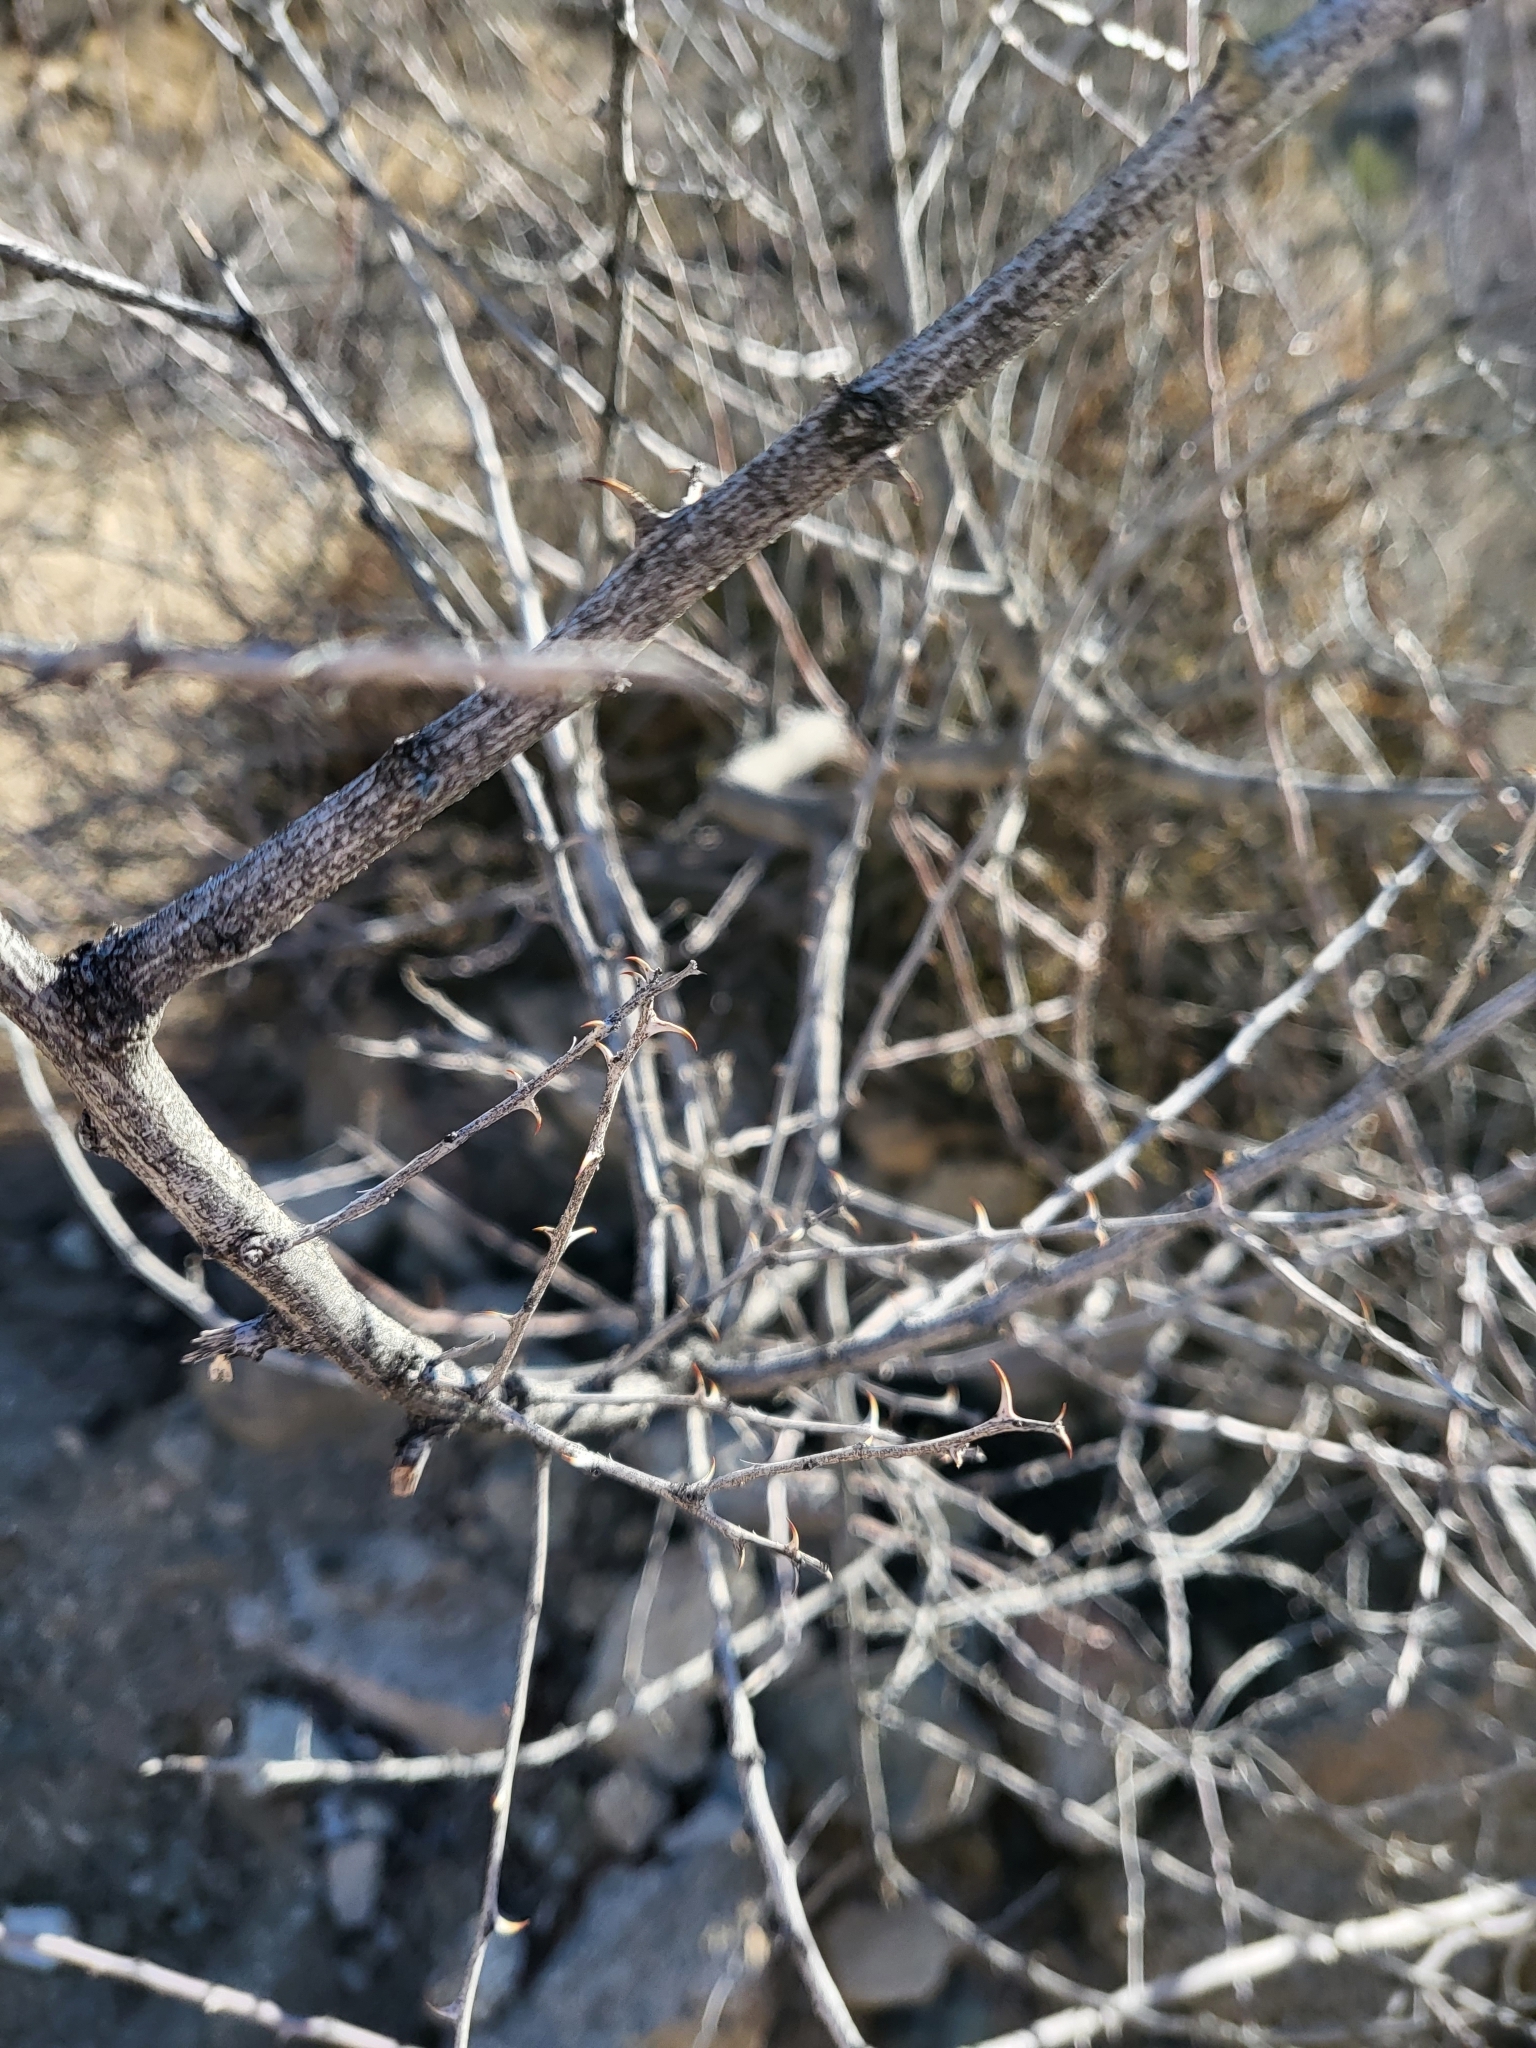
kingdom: Plantae
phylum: Tracheophyta
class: Magnoliopsida
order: Fabales
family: Fabaceae
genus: Senegalia
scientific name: Senegalia greggii
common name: Texas-mimosa
